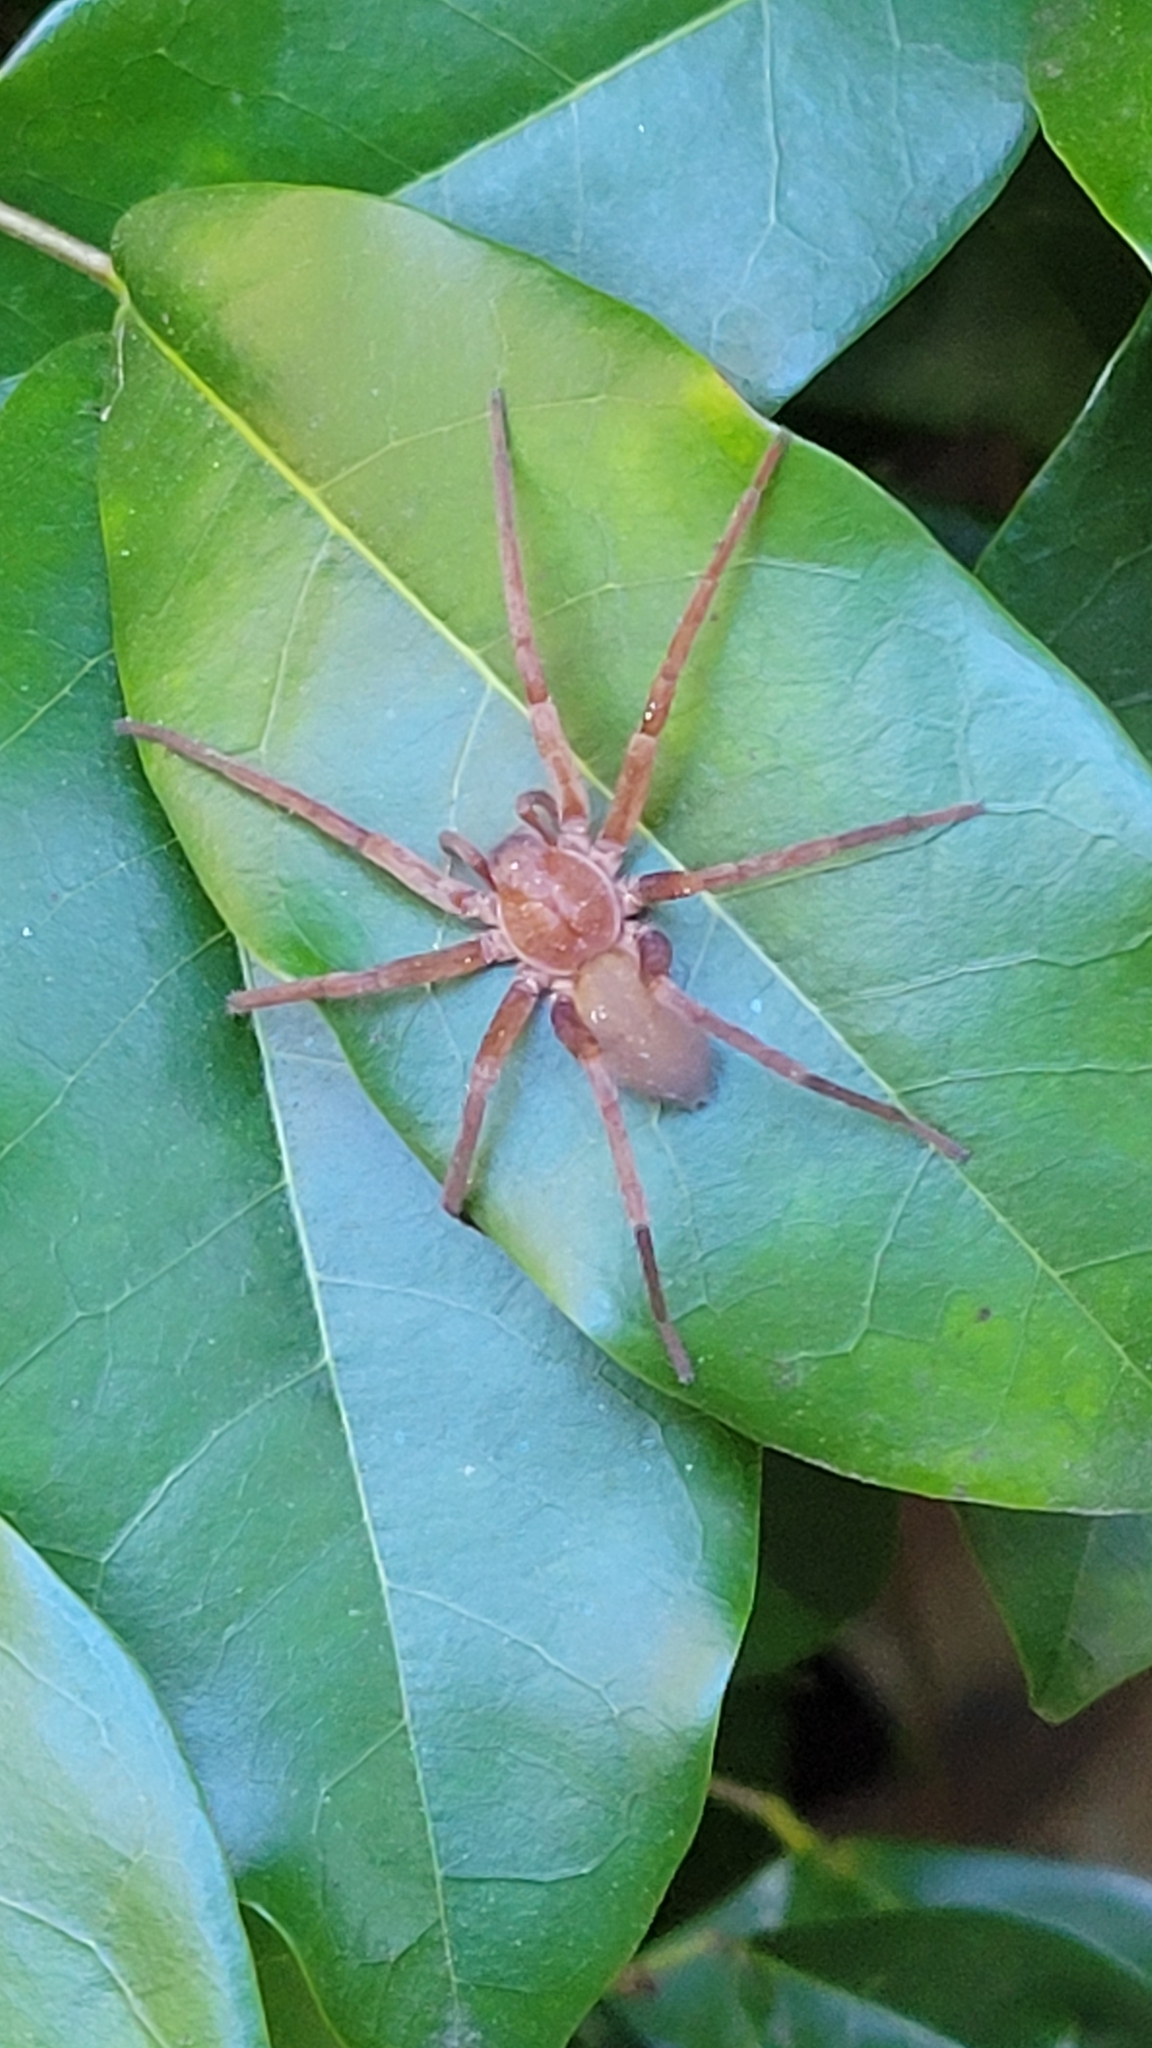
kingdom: Animalia
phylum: Arthropoda
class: Arachnida
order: Araneae
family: Zoropsidae
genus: Titiotus
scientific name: Titiotus
